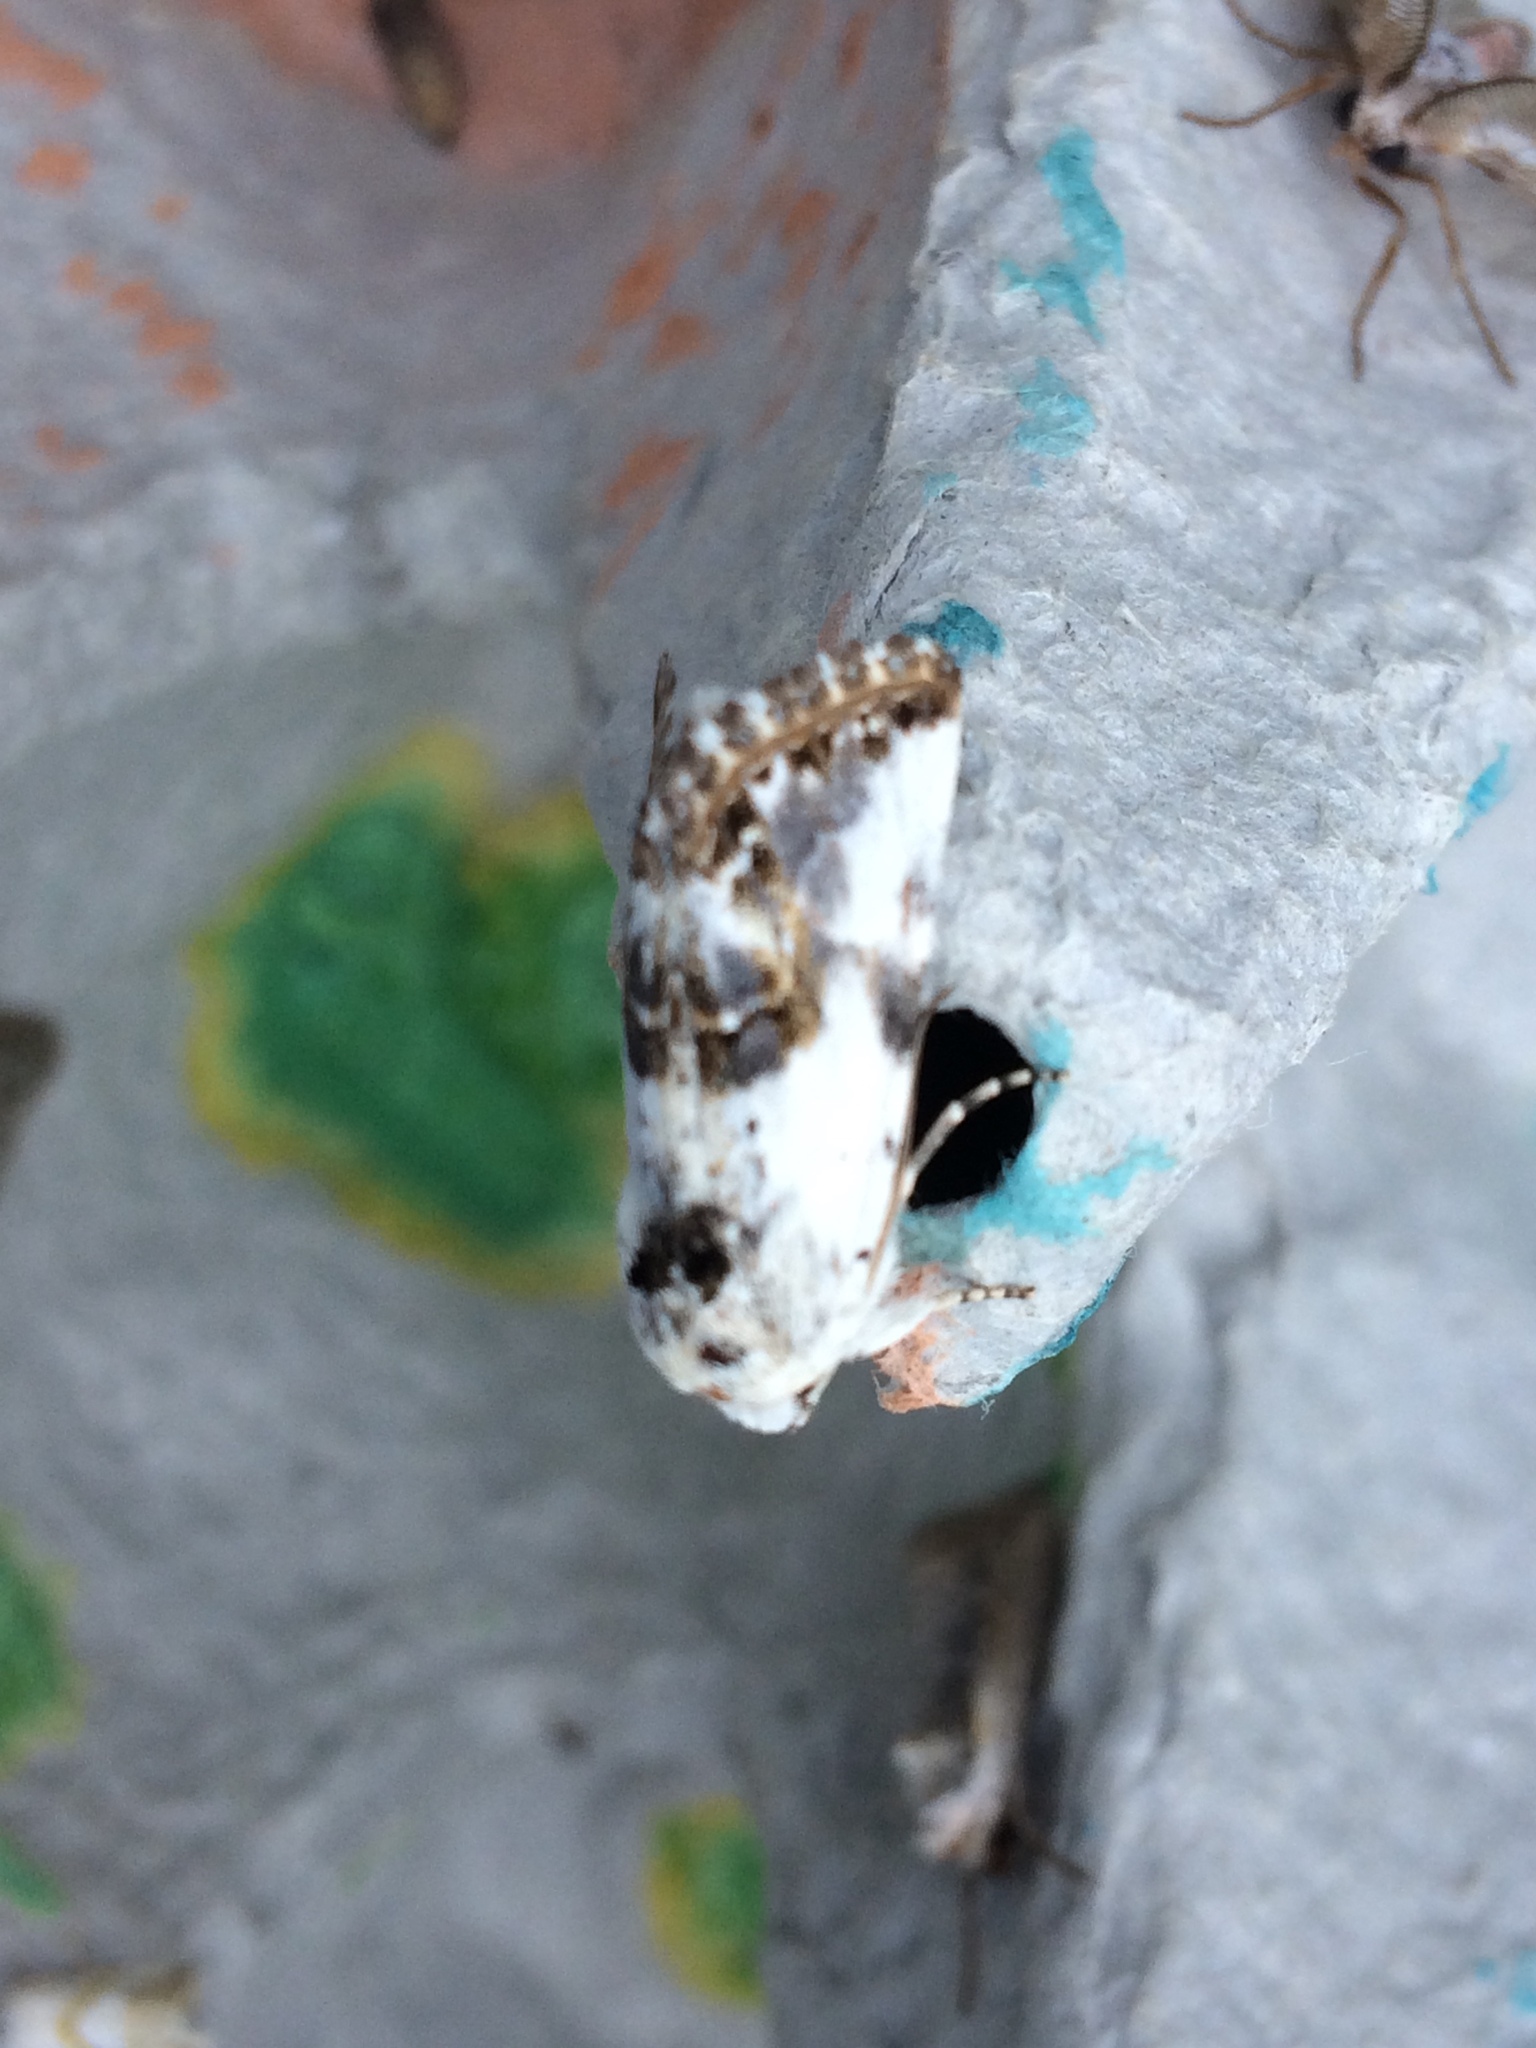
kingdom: Animalia
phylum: Arthropoda
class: Insecta
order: Lepidoptera
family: Noctuidae
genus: Calophasia
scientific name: Calophasia opalina
